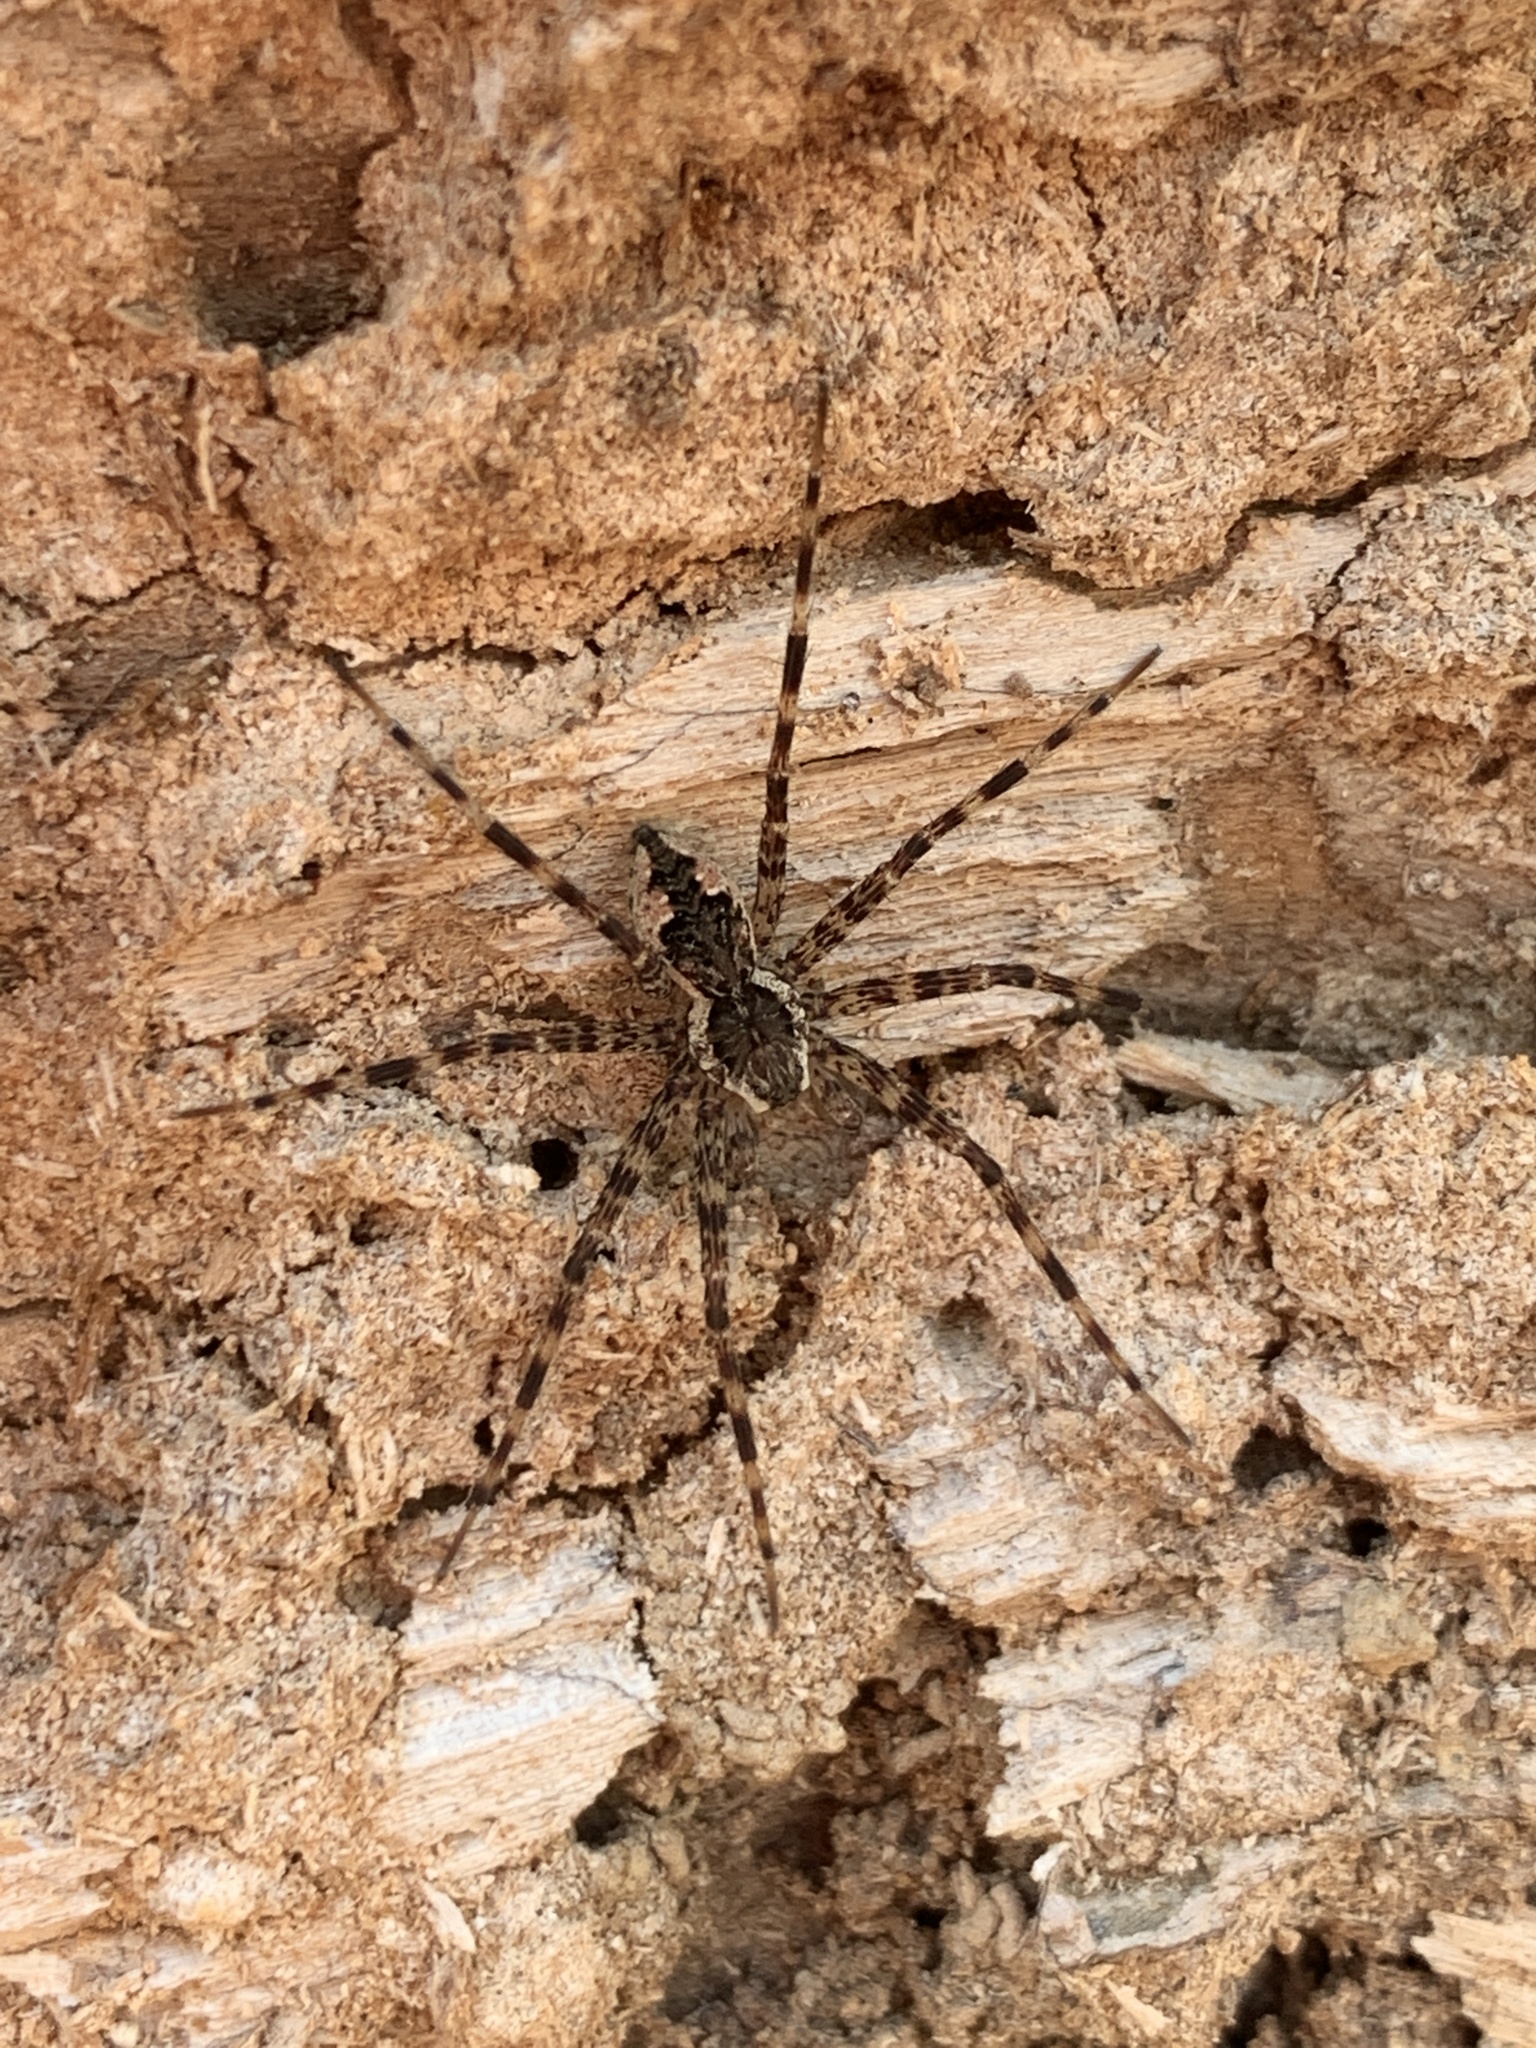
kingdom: Animalia
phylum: Arthropoda
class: Arachnida
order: Araneae
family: Pisauridae
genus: Dolomedes
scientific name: Dolomedes tenebrosus
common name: Dark fishing spider
